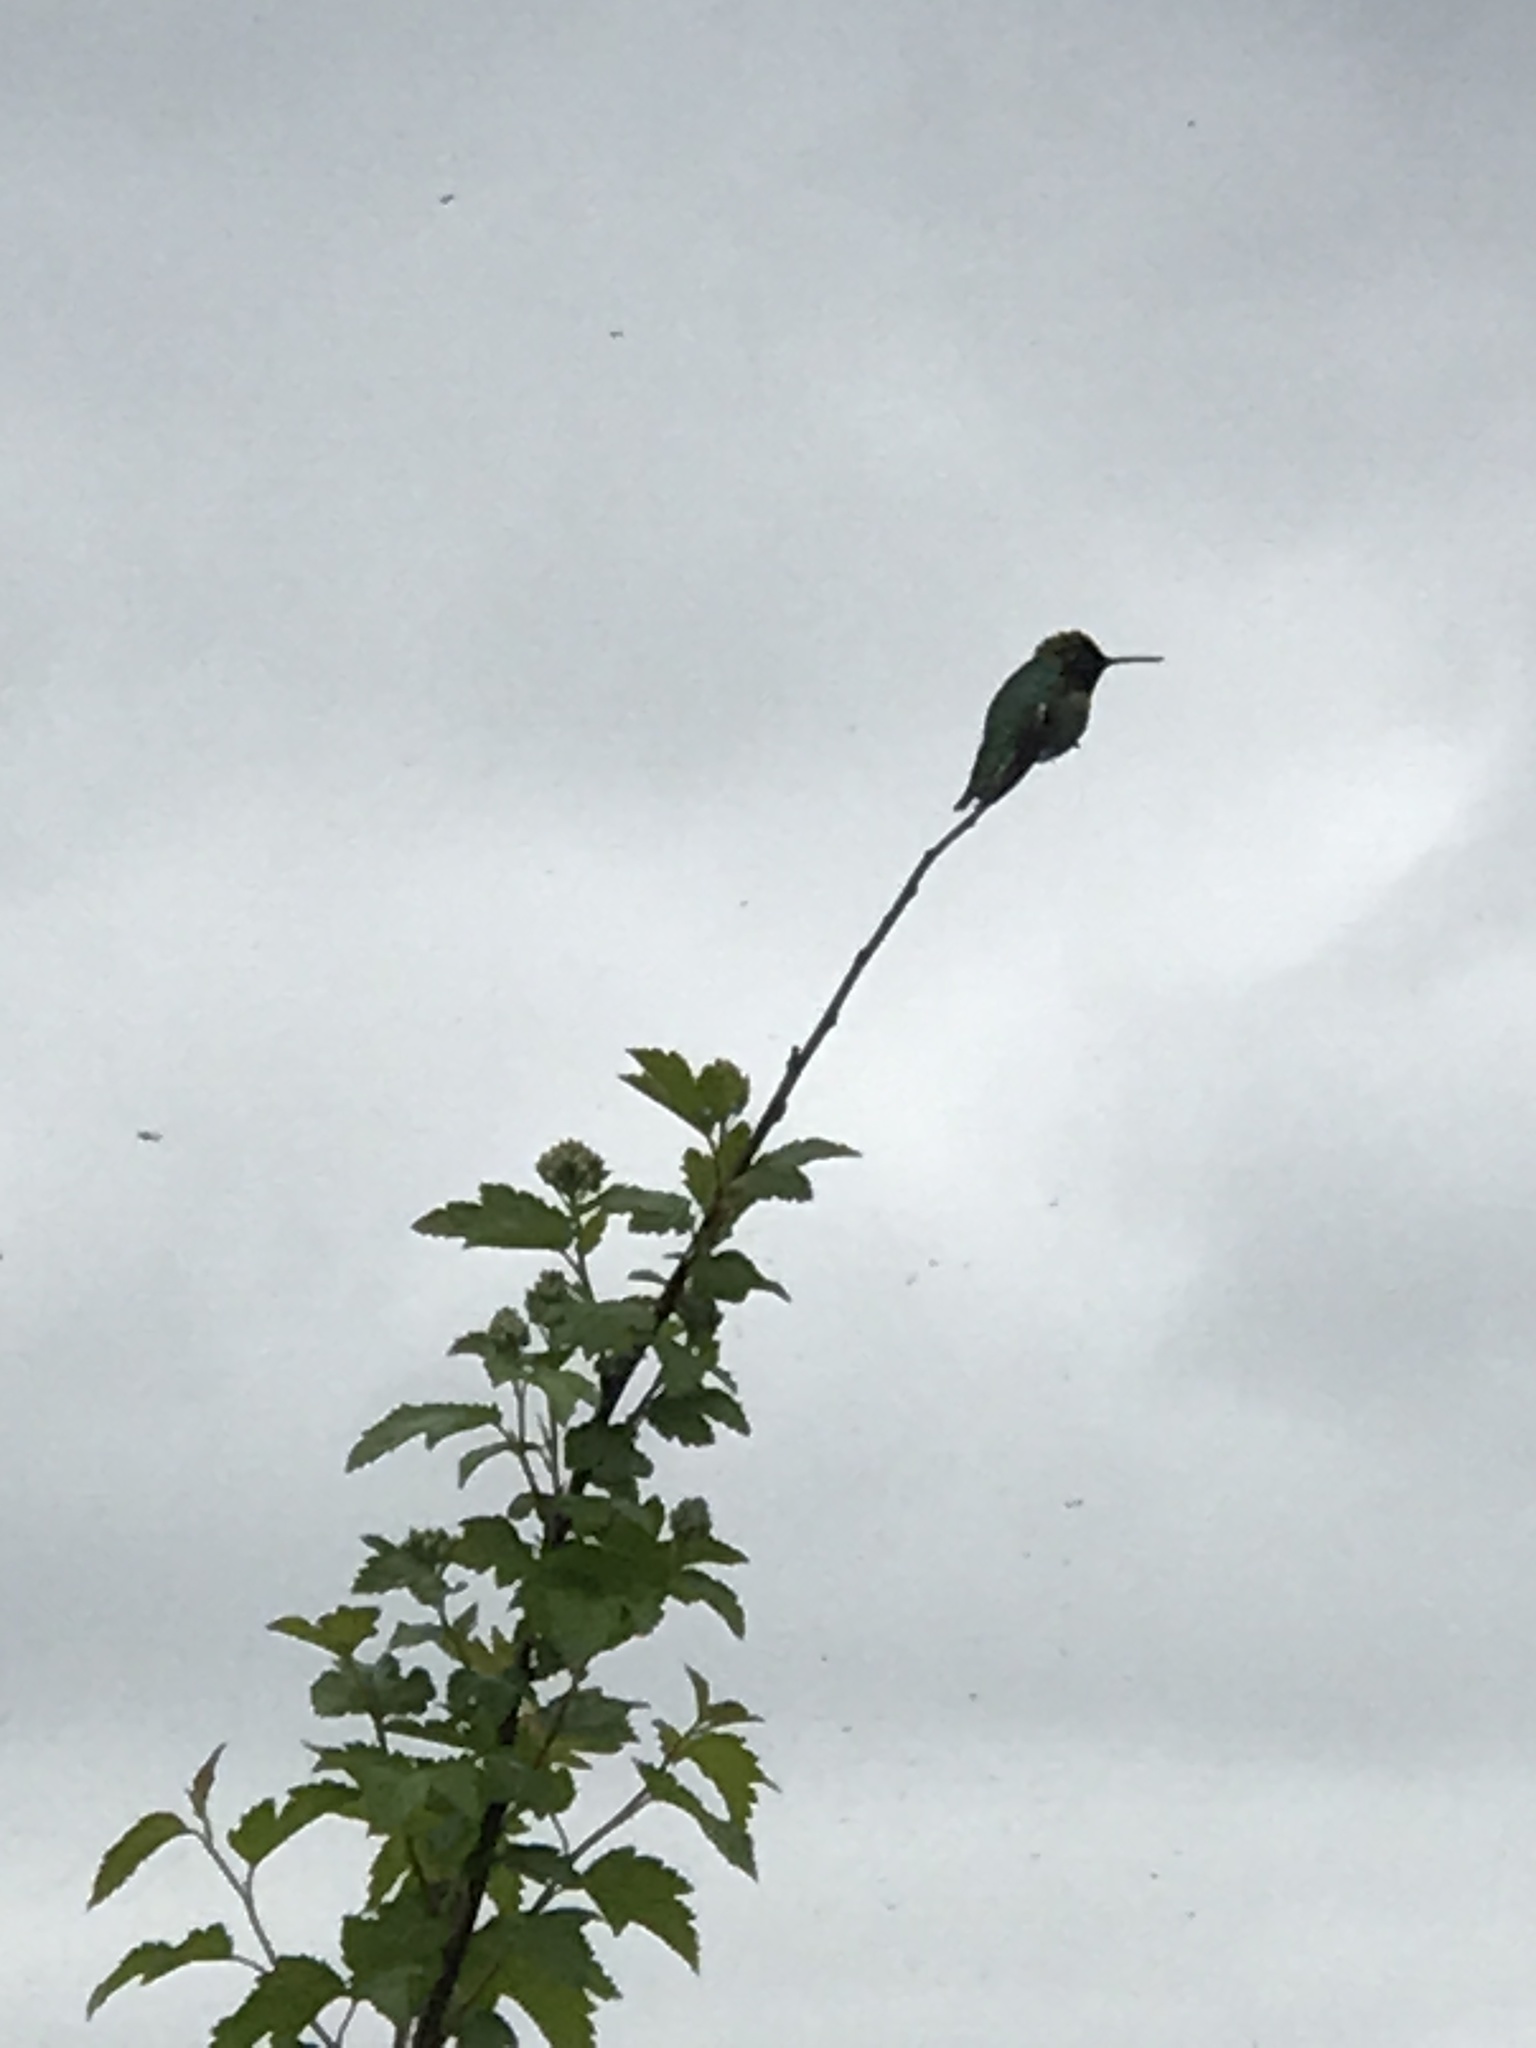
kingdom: Animalia
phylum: Chordata
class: Aves
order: Apodiformes
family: Trochilidae
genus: Calypte
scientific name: Calypte anna
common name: Anna's hummingbird
